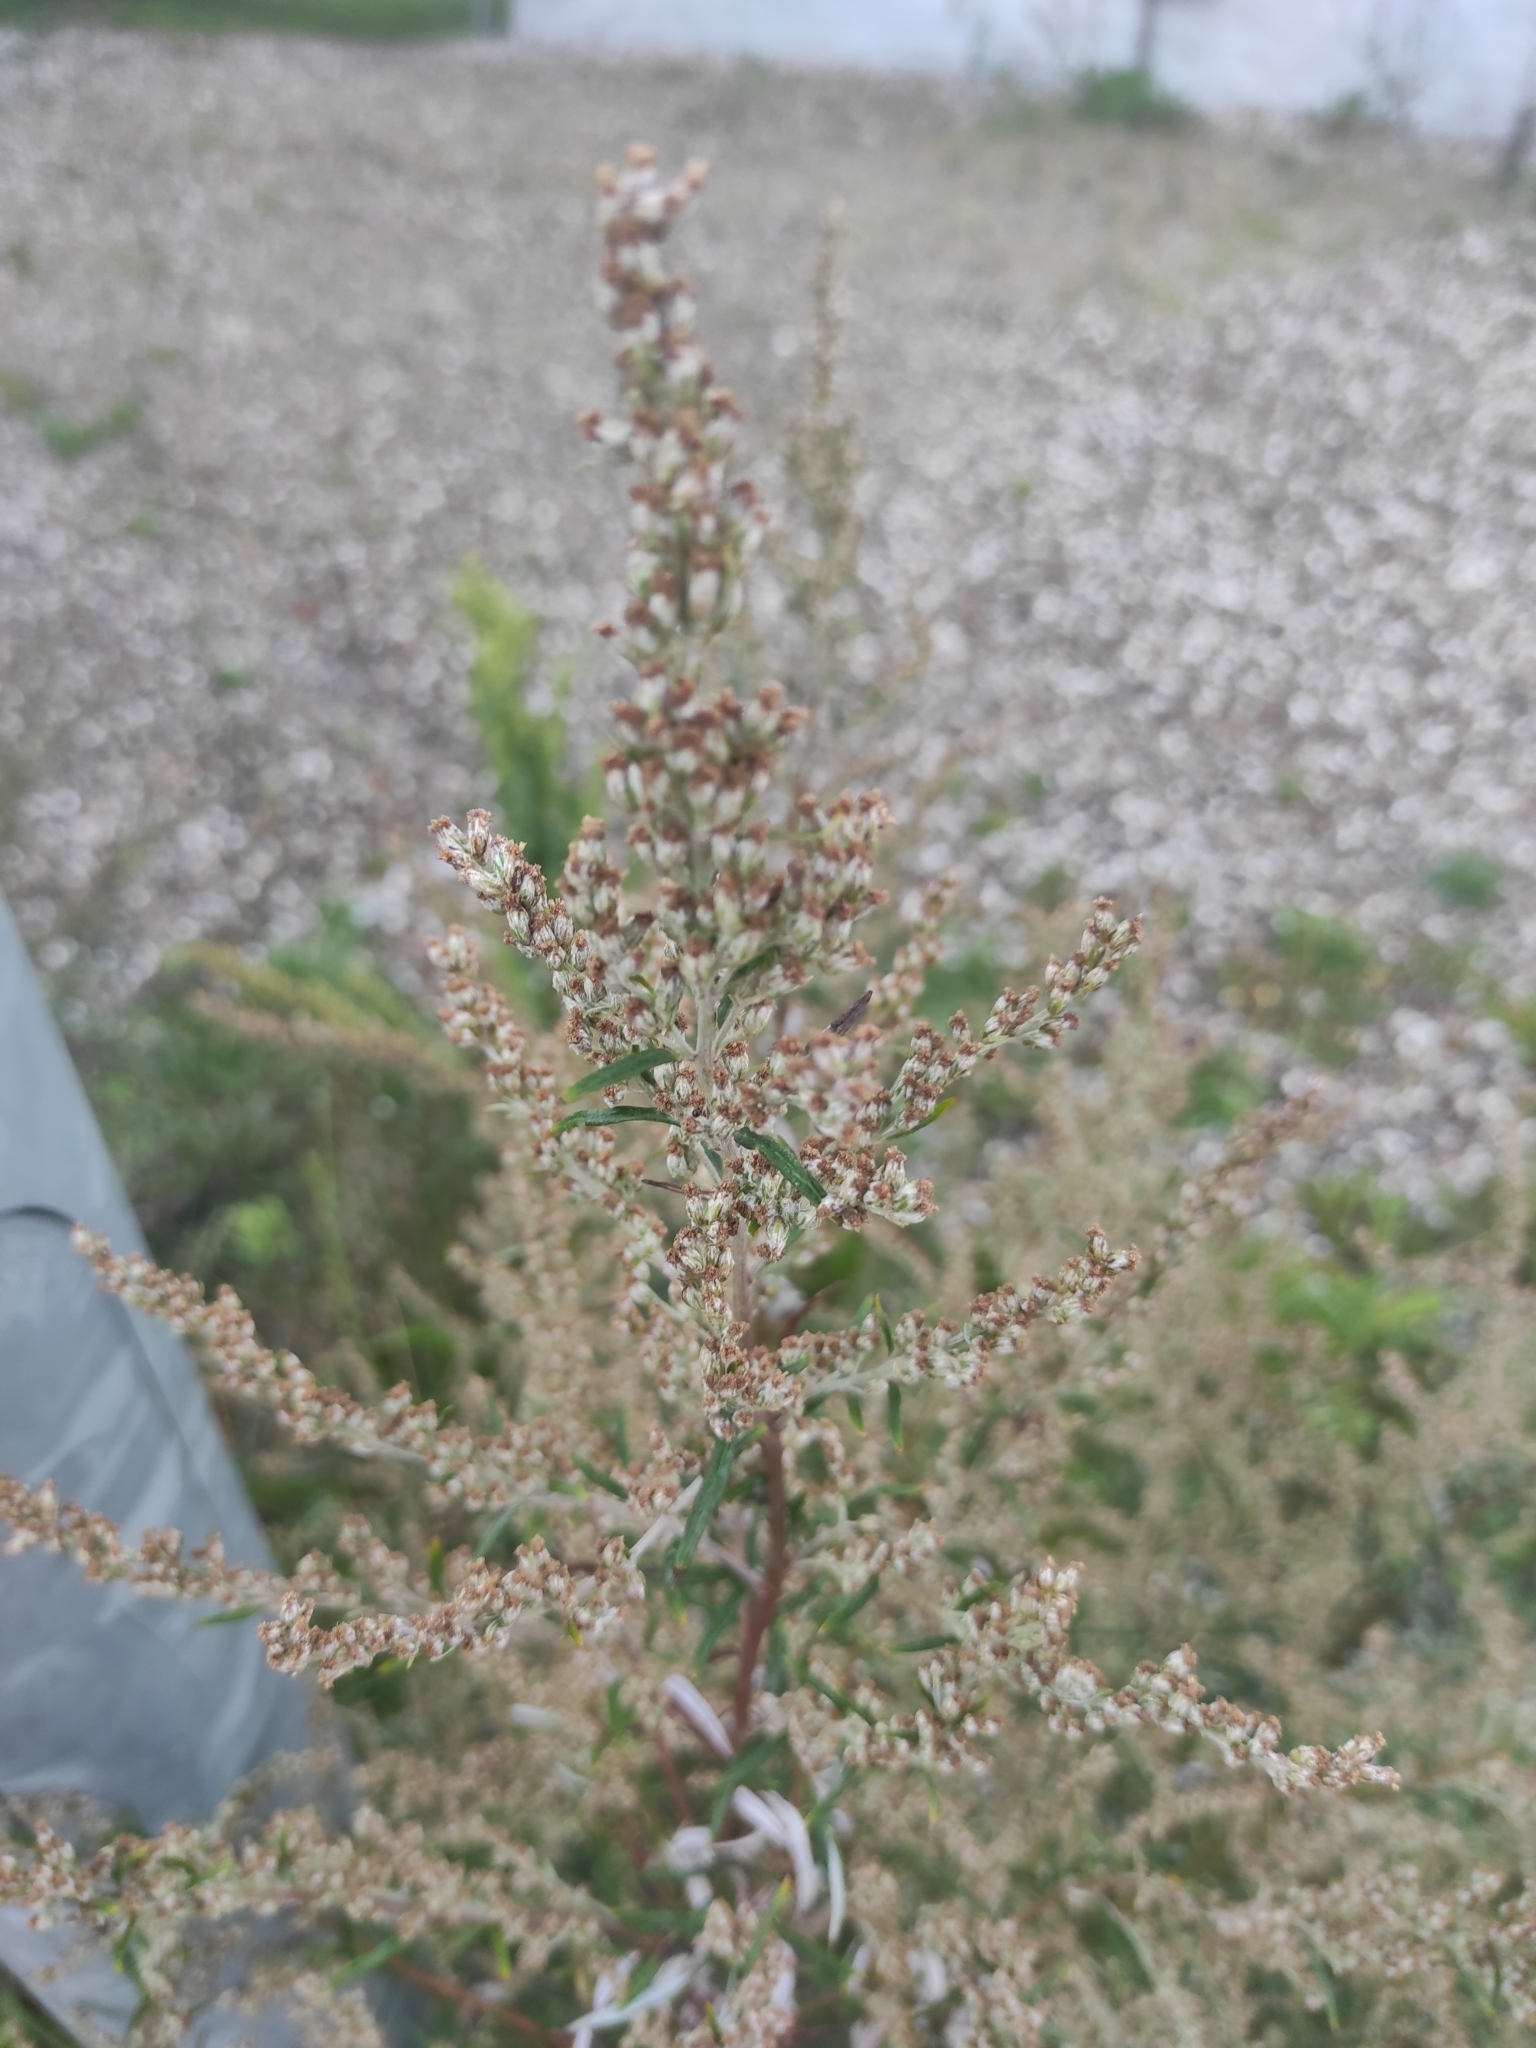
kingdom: Plantae
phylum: Tracheophyta
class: Magnoliopsida
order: Asterales
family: Asteraceae
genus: Artemisia
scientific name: Artemisia vulgaris
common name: Mugwort
